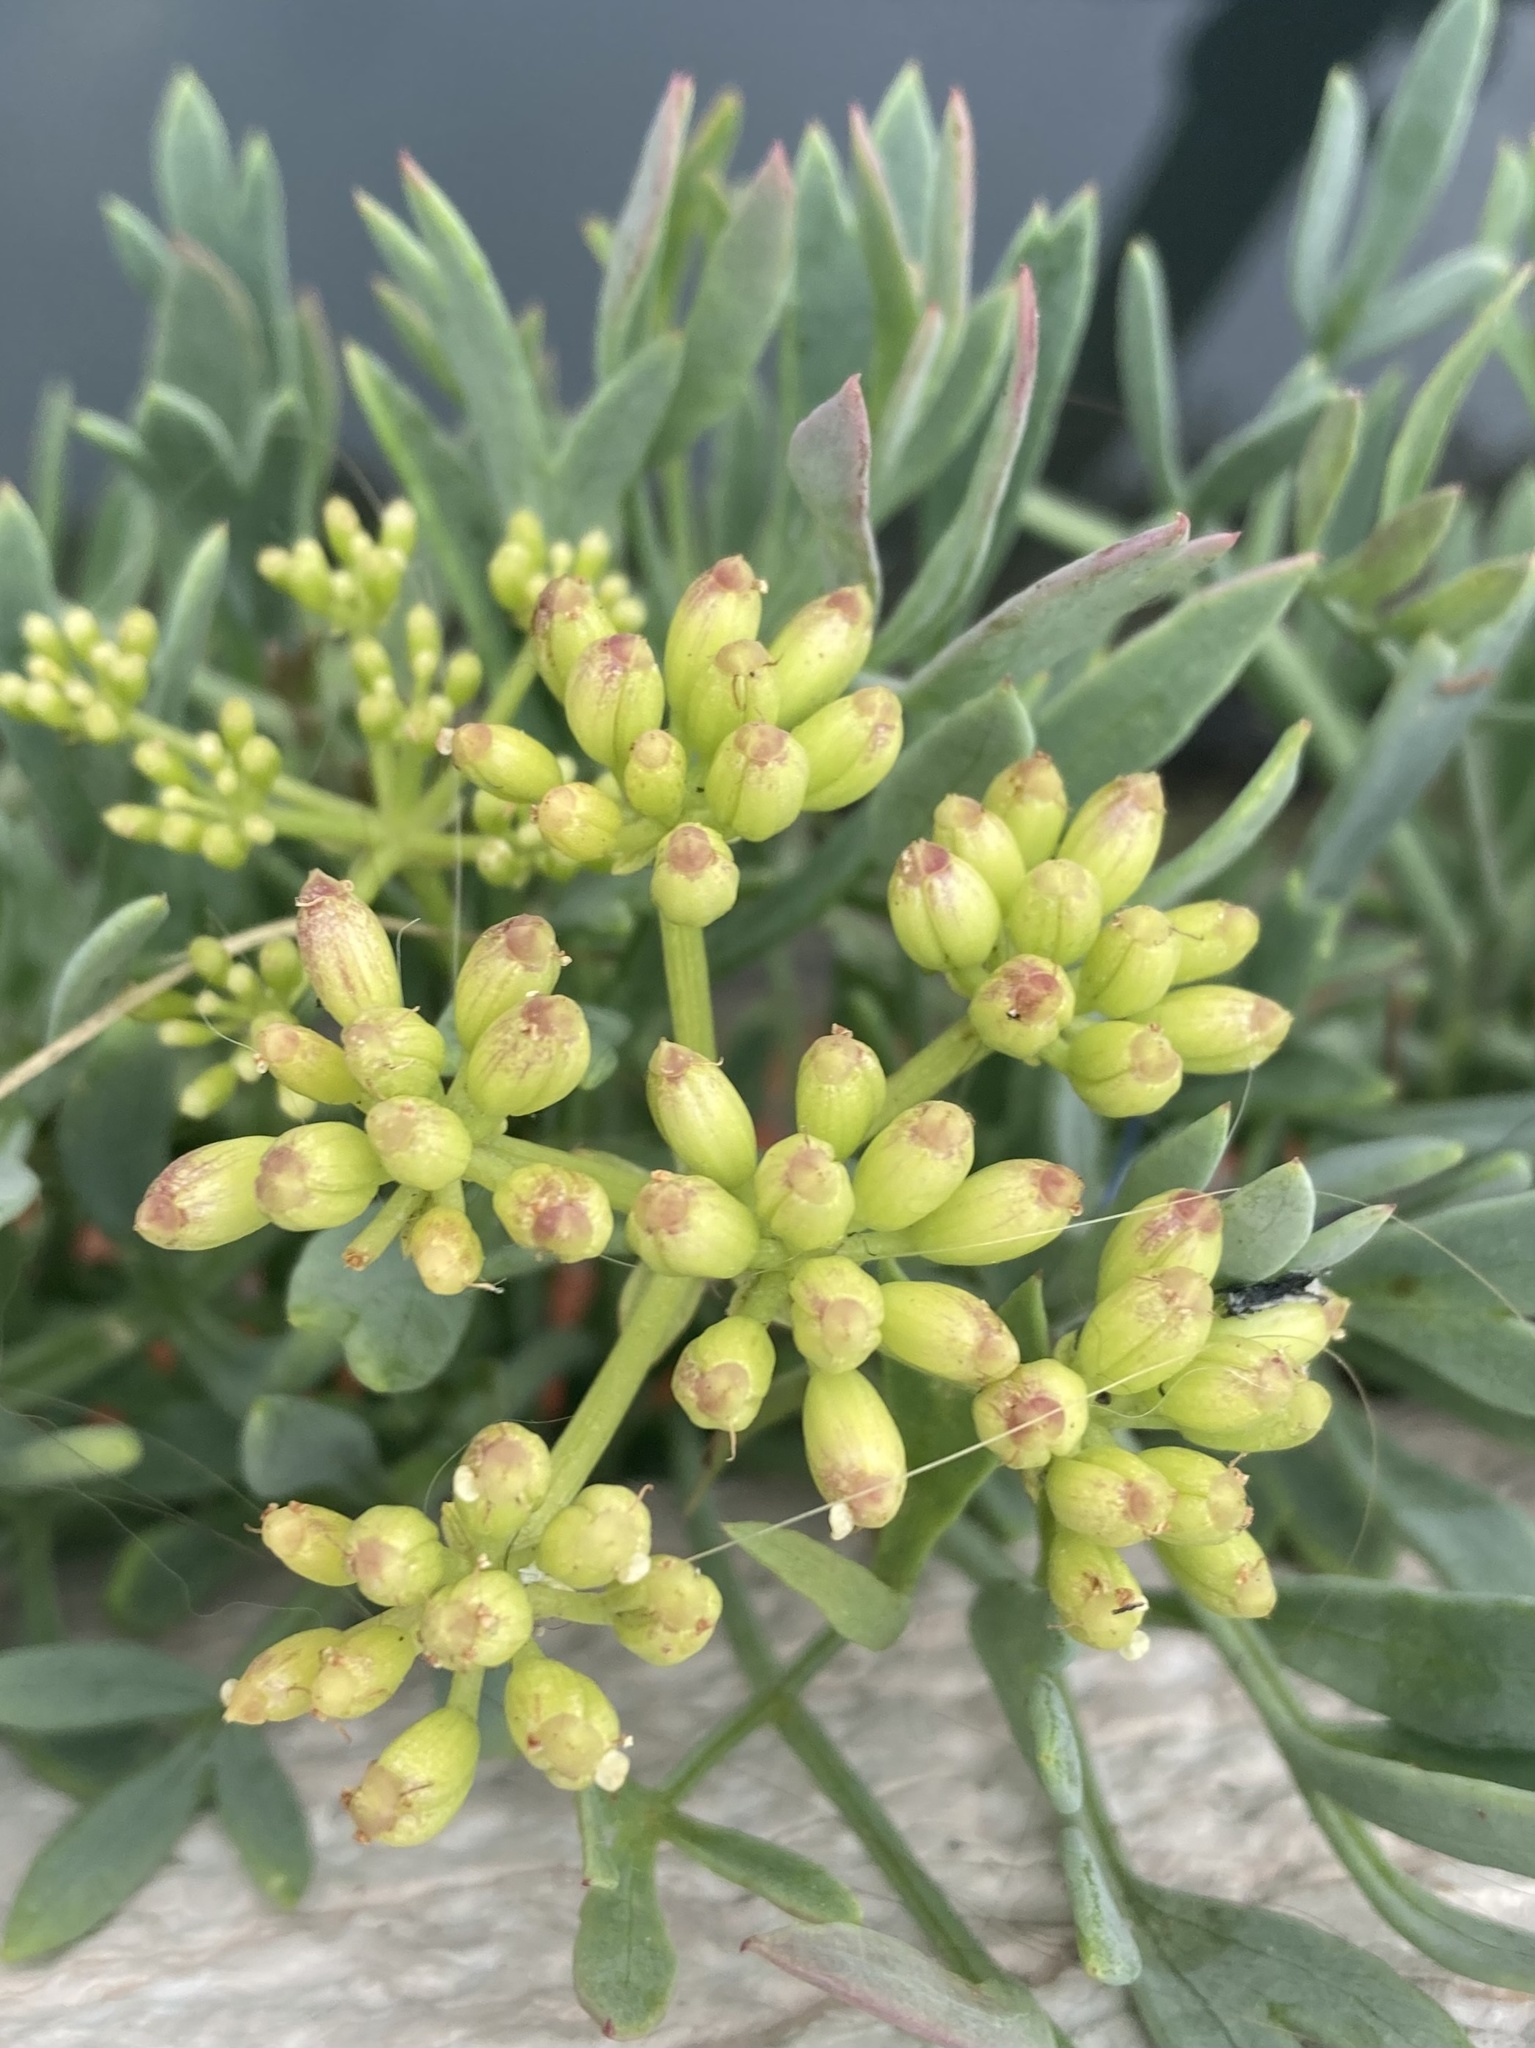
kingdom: Plantae
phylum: Tracheophyta
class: Magnoliopsida
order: Apiales
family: Apiaceae
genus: Crithmum
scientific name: Crithmum maritimum
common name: Rock samphire
